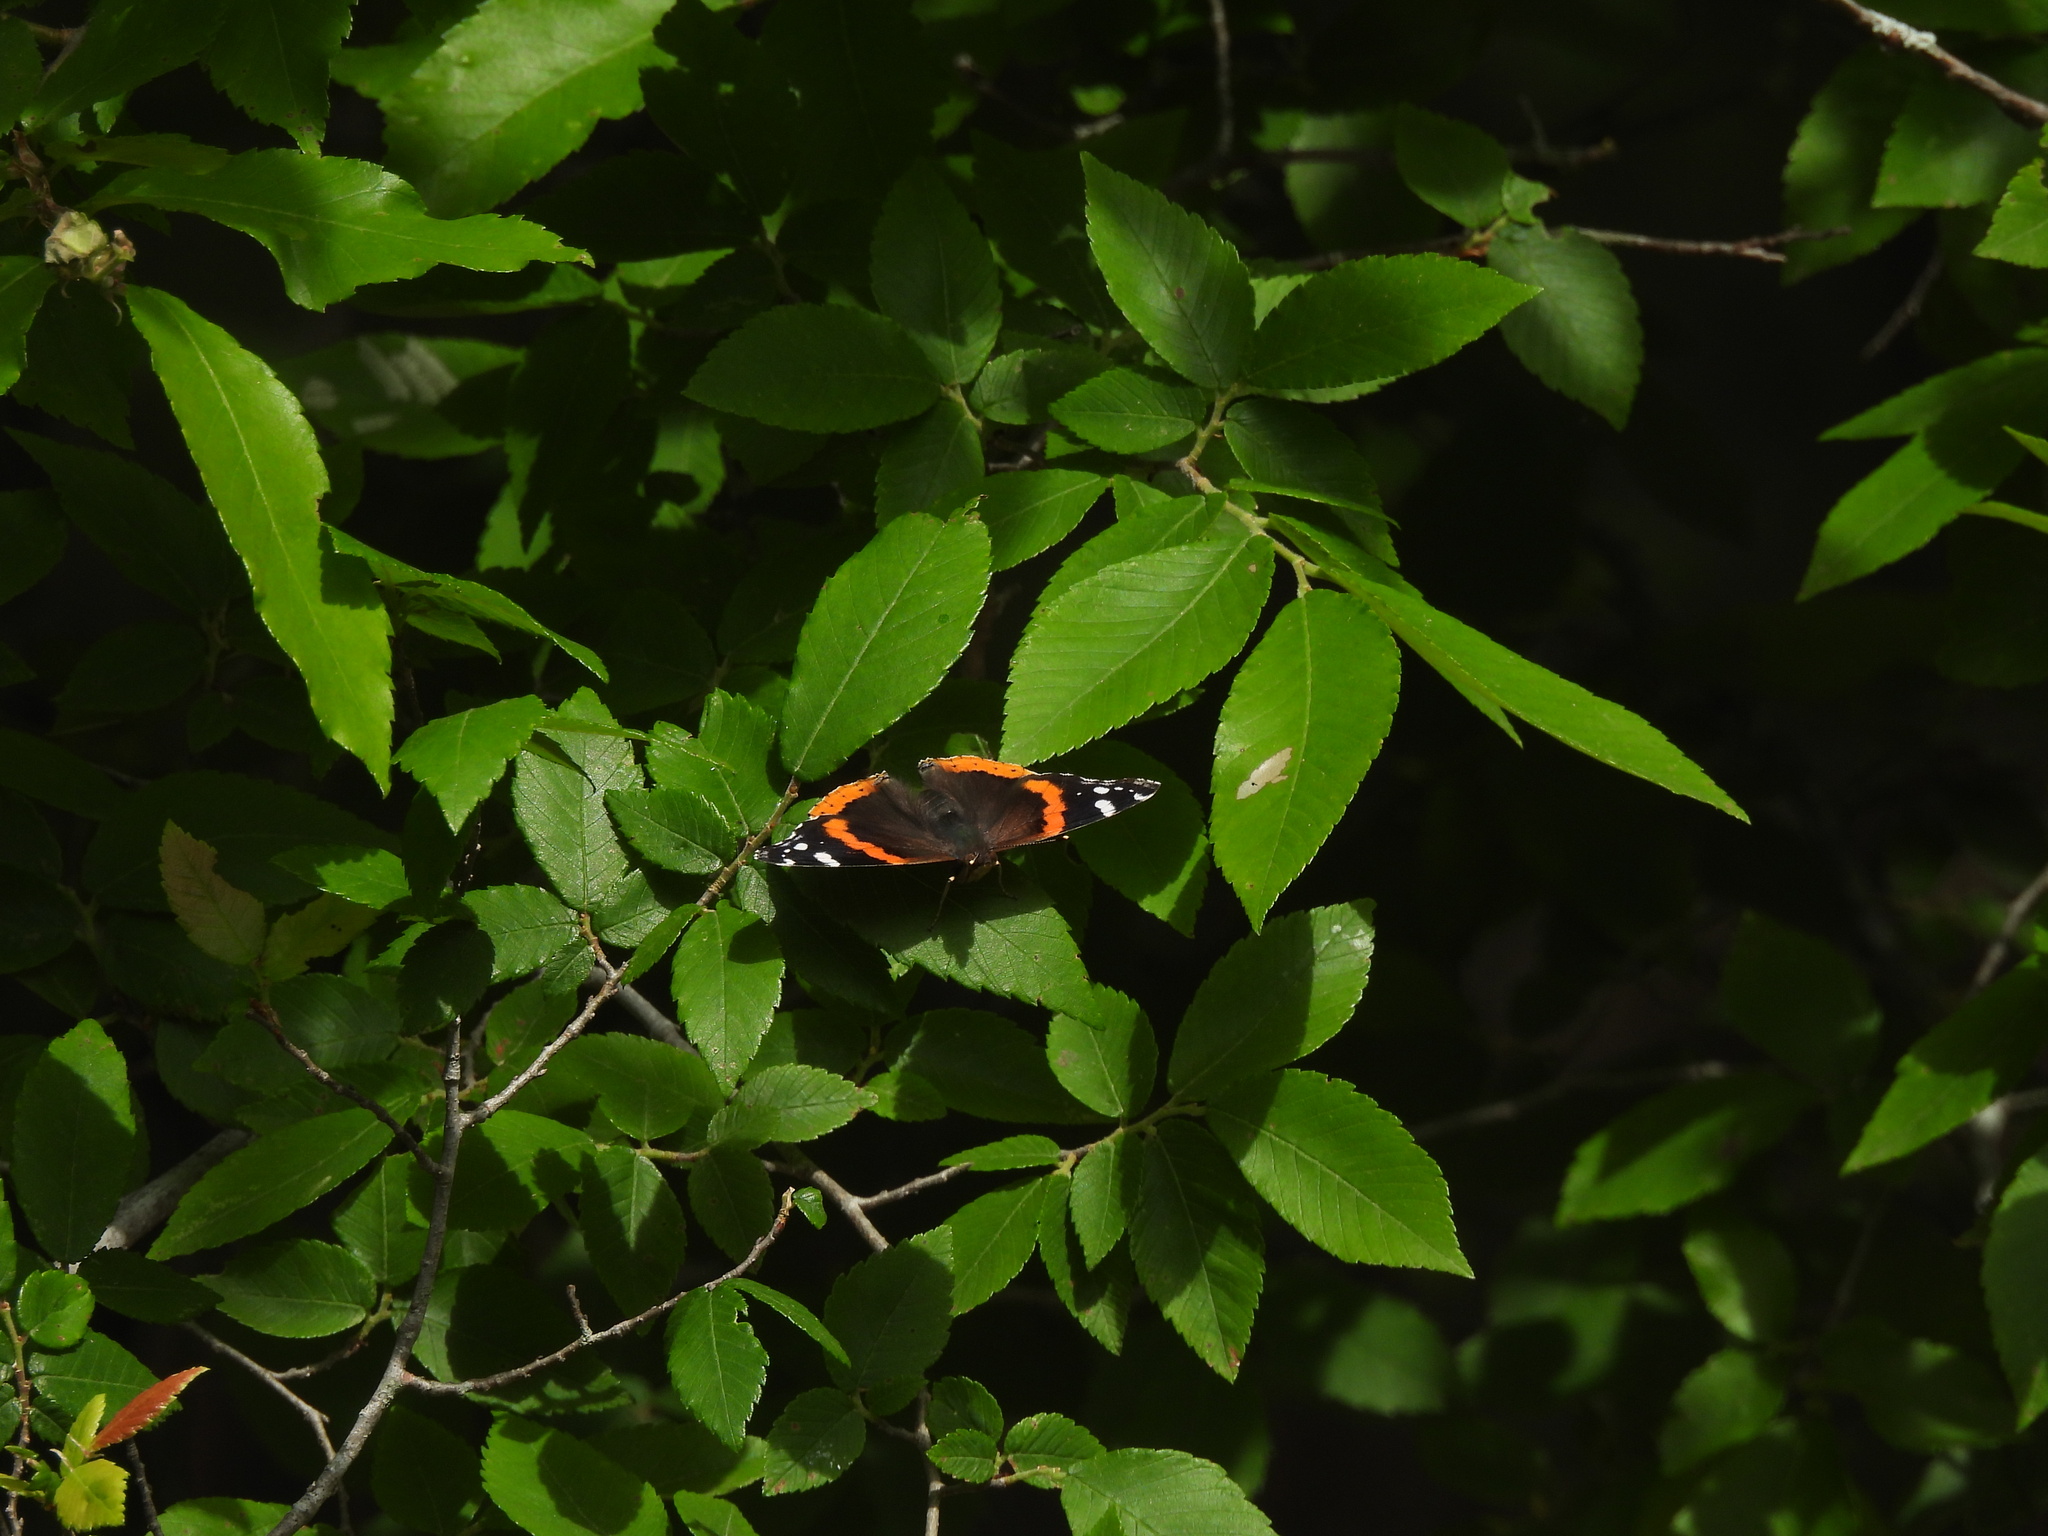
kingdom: Animalia
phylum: Arthropoda
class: Insecta
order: Lepidoptera
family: Nymphalidae
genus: Vanessa
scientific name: Vanessa atalanta
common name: Red admiral
